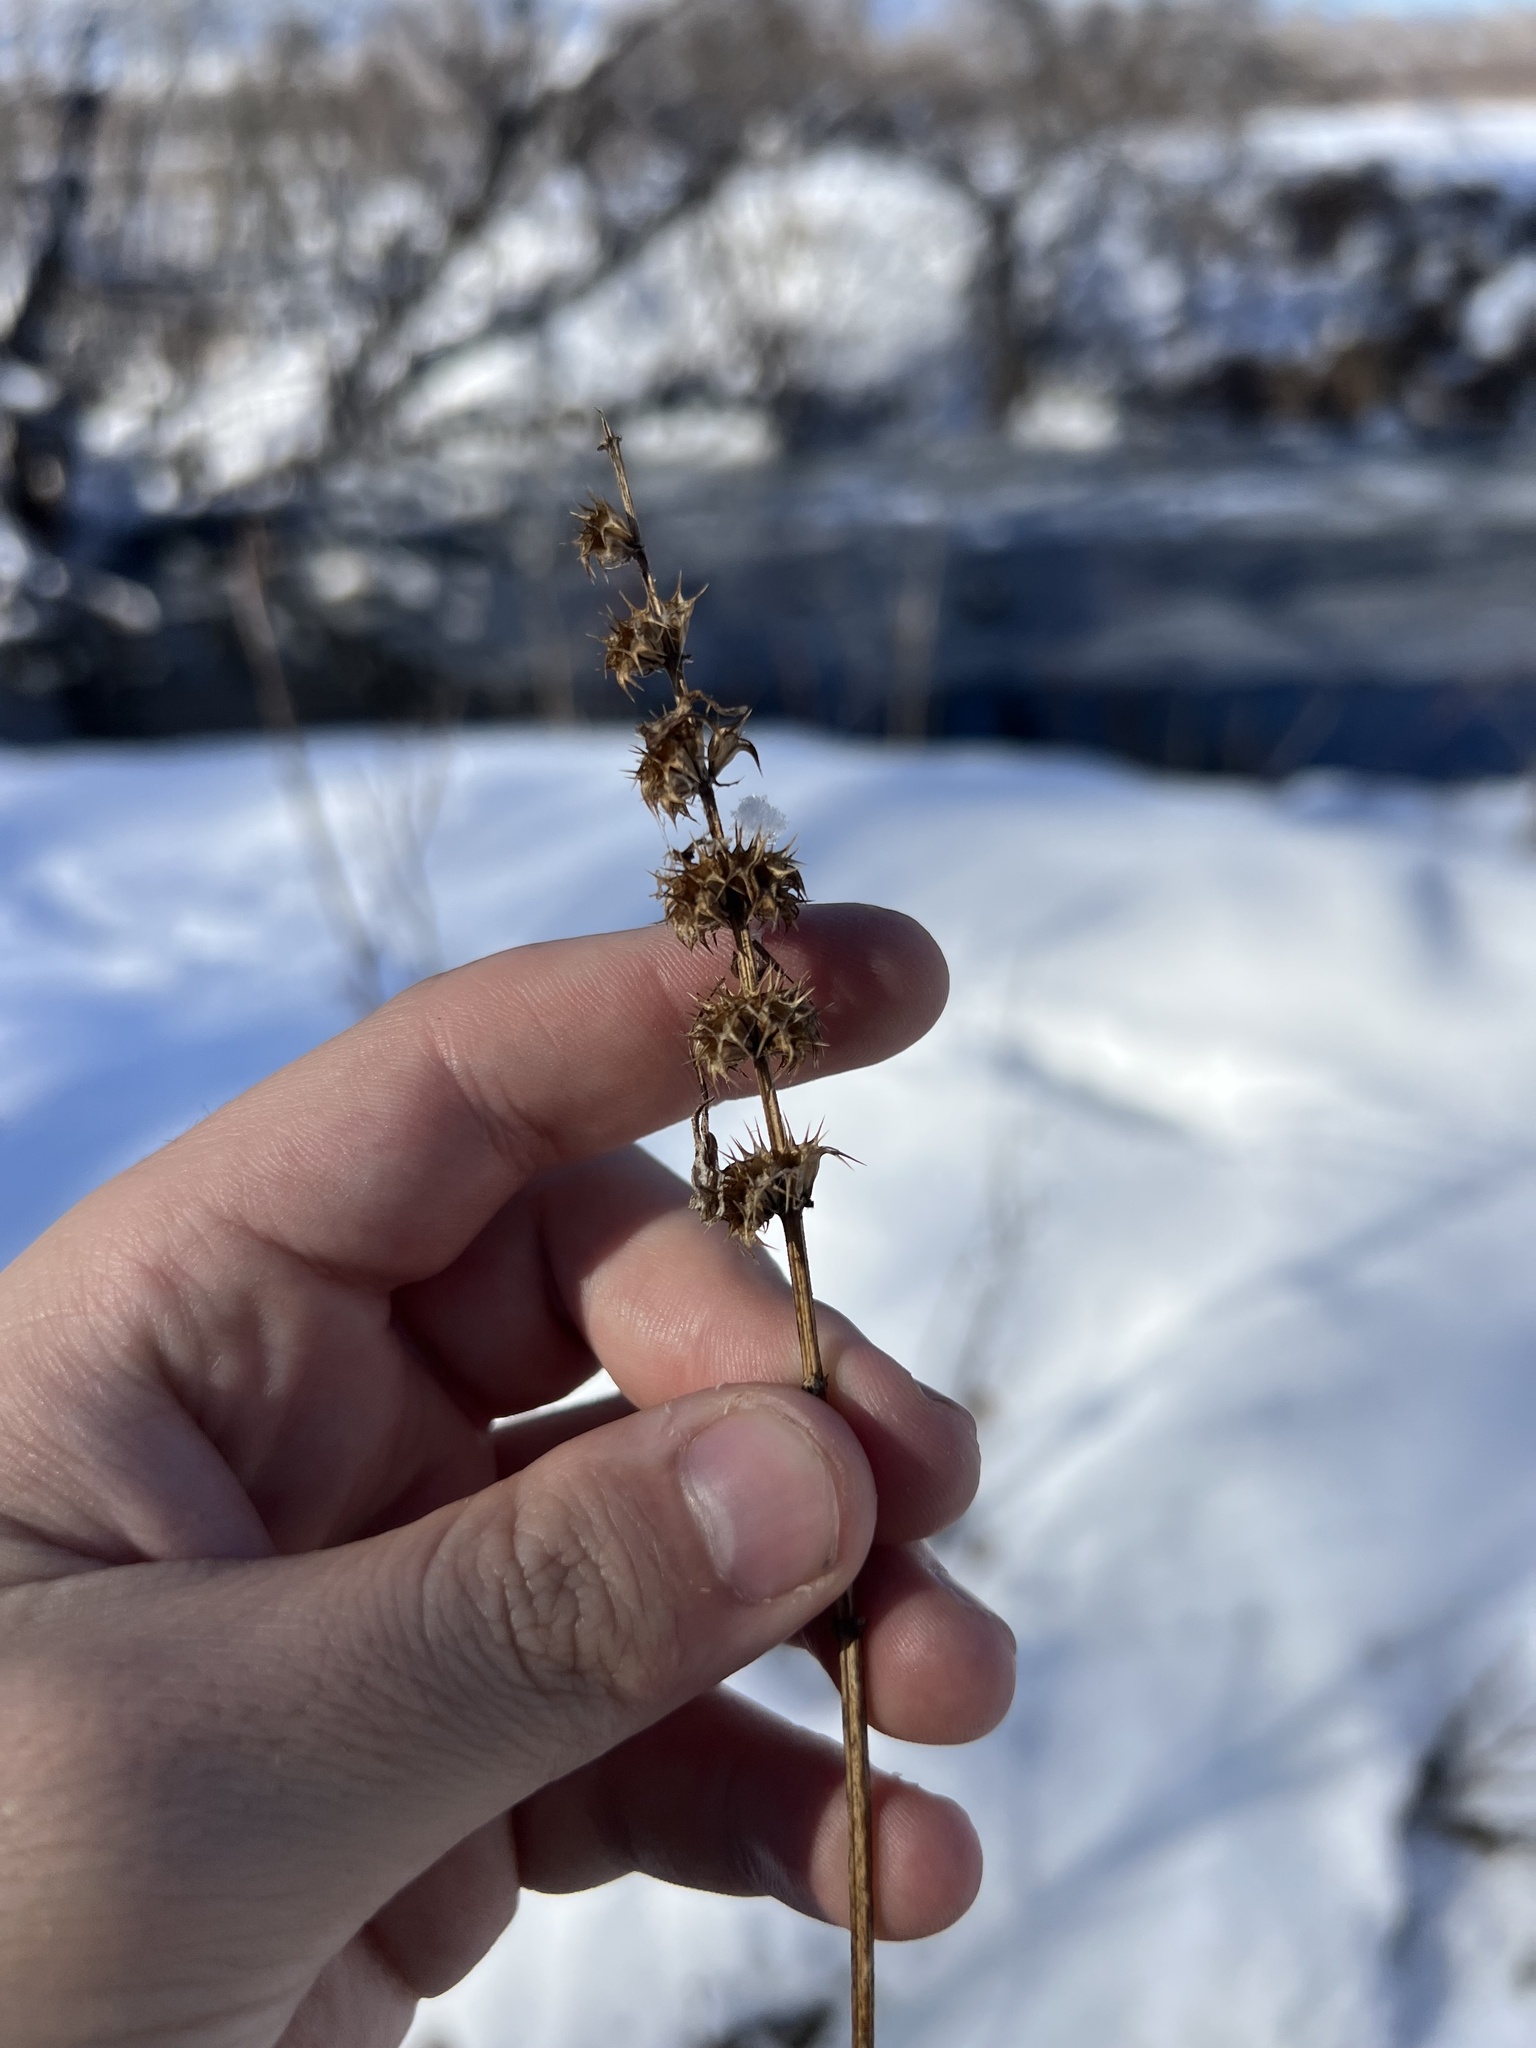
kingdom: Plantae
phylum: Tracheophyta
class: Magnoliopsida
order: Lamiales
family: Lamiaceae
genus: Leonurus
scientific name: Leonurus cardiaca
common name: Motherwort
